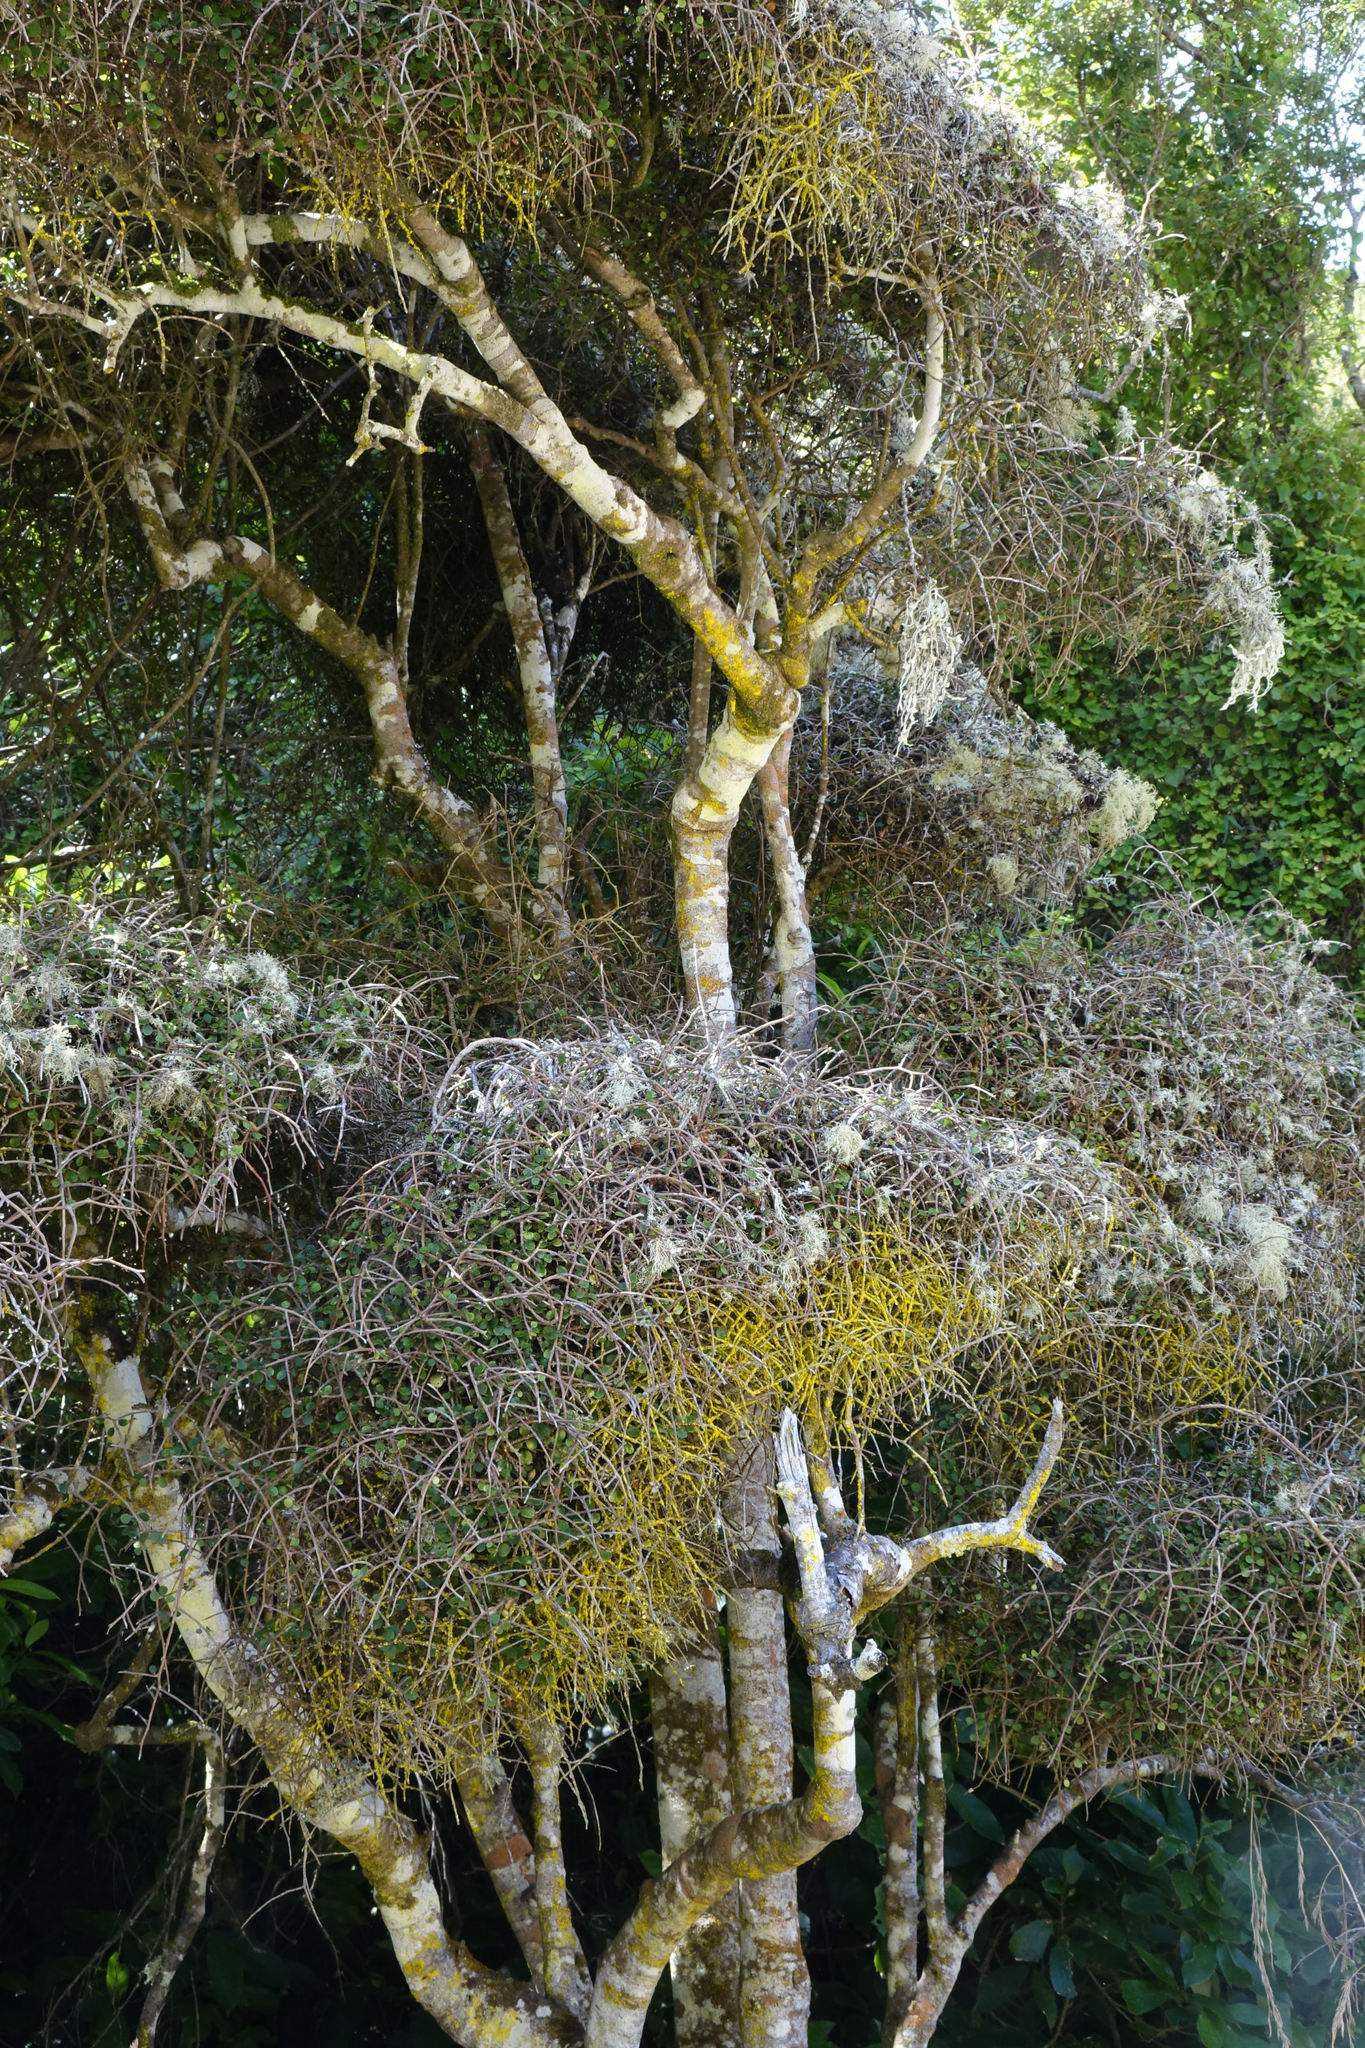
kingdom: Plantae
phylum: Tracheophyta
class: Magnoliopsida
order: Ericales
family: Primulaceae
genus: Myrsine
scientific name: Myrsine divaricata
